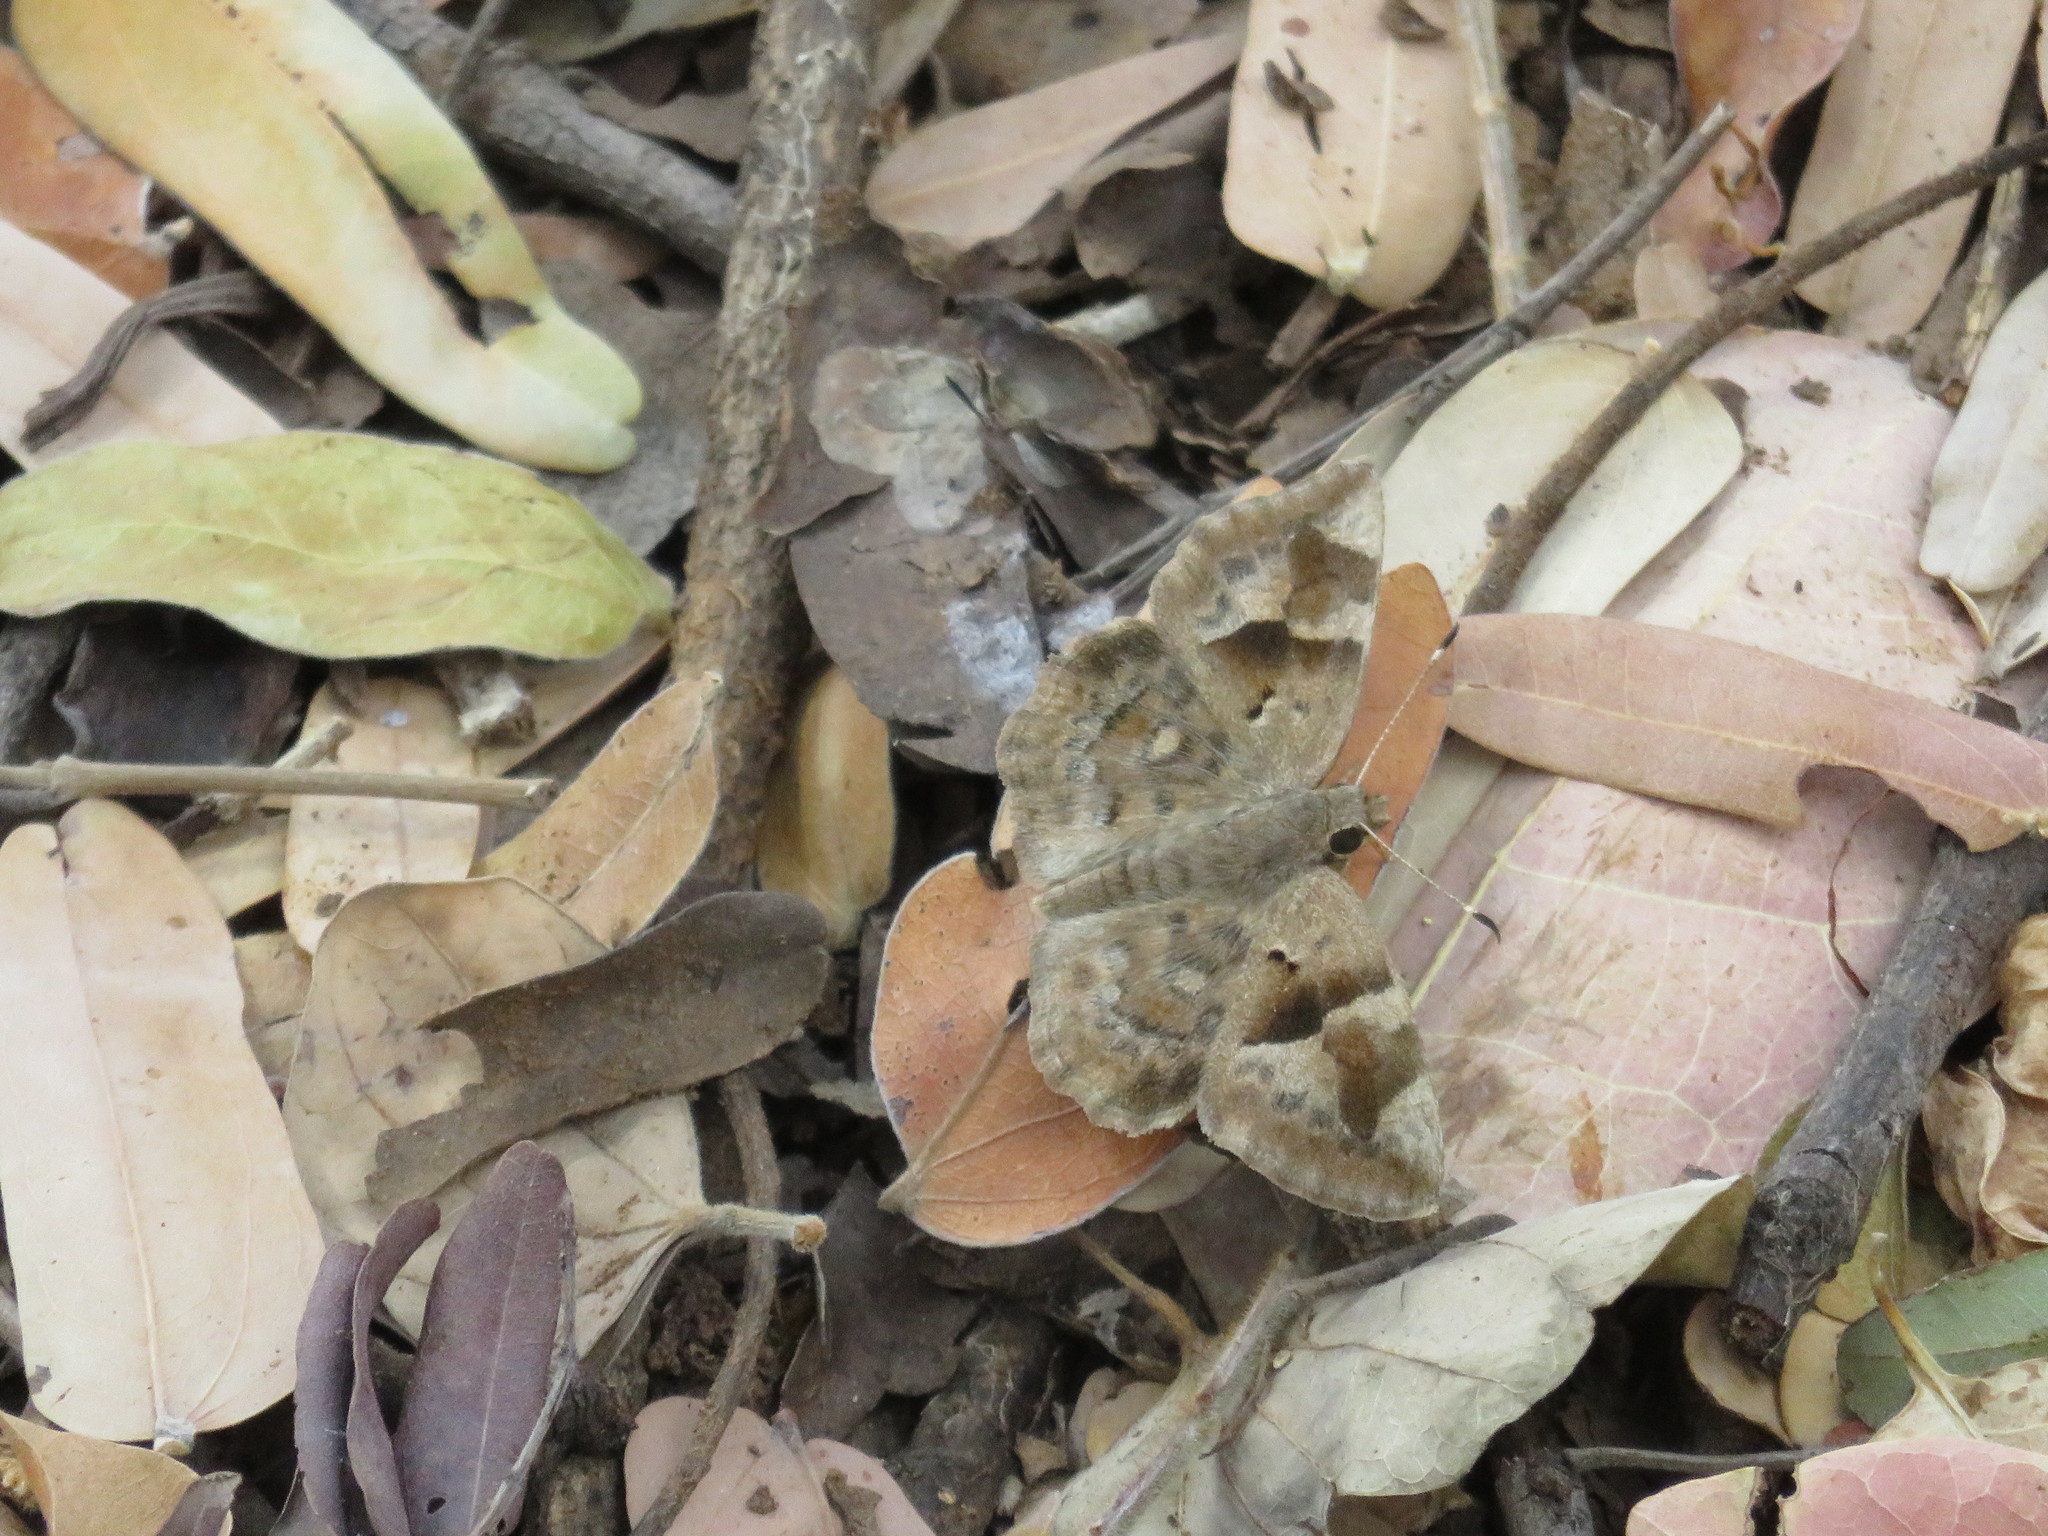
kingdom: Animalia
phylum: Arthropoda
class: Insecta
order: Lepidoptera
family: Hesperiidae
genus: Sarangesa
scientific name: Sarangesa motozi
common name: Forest elfin
